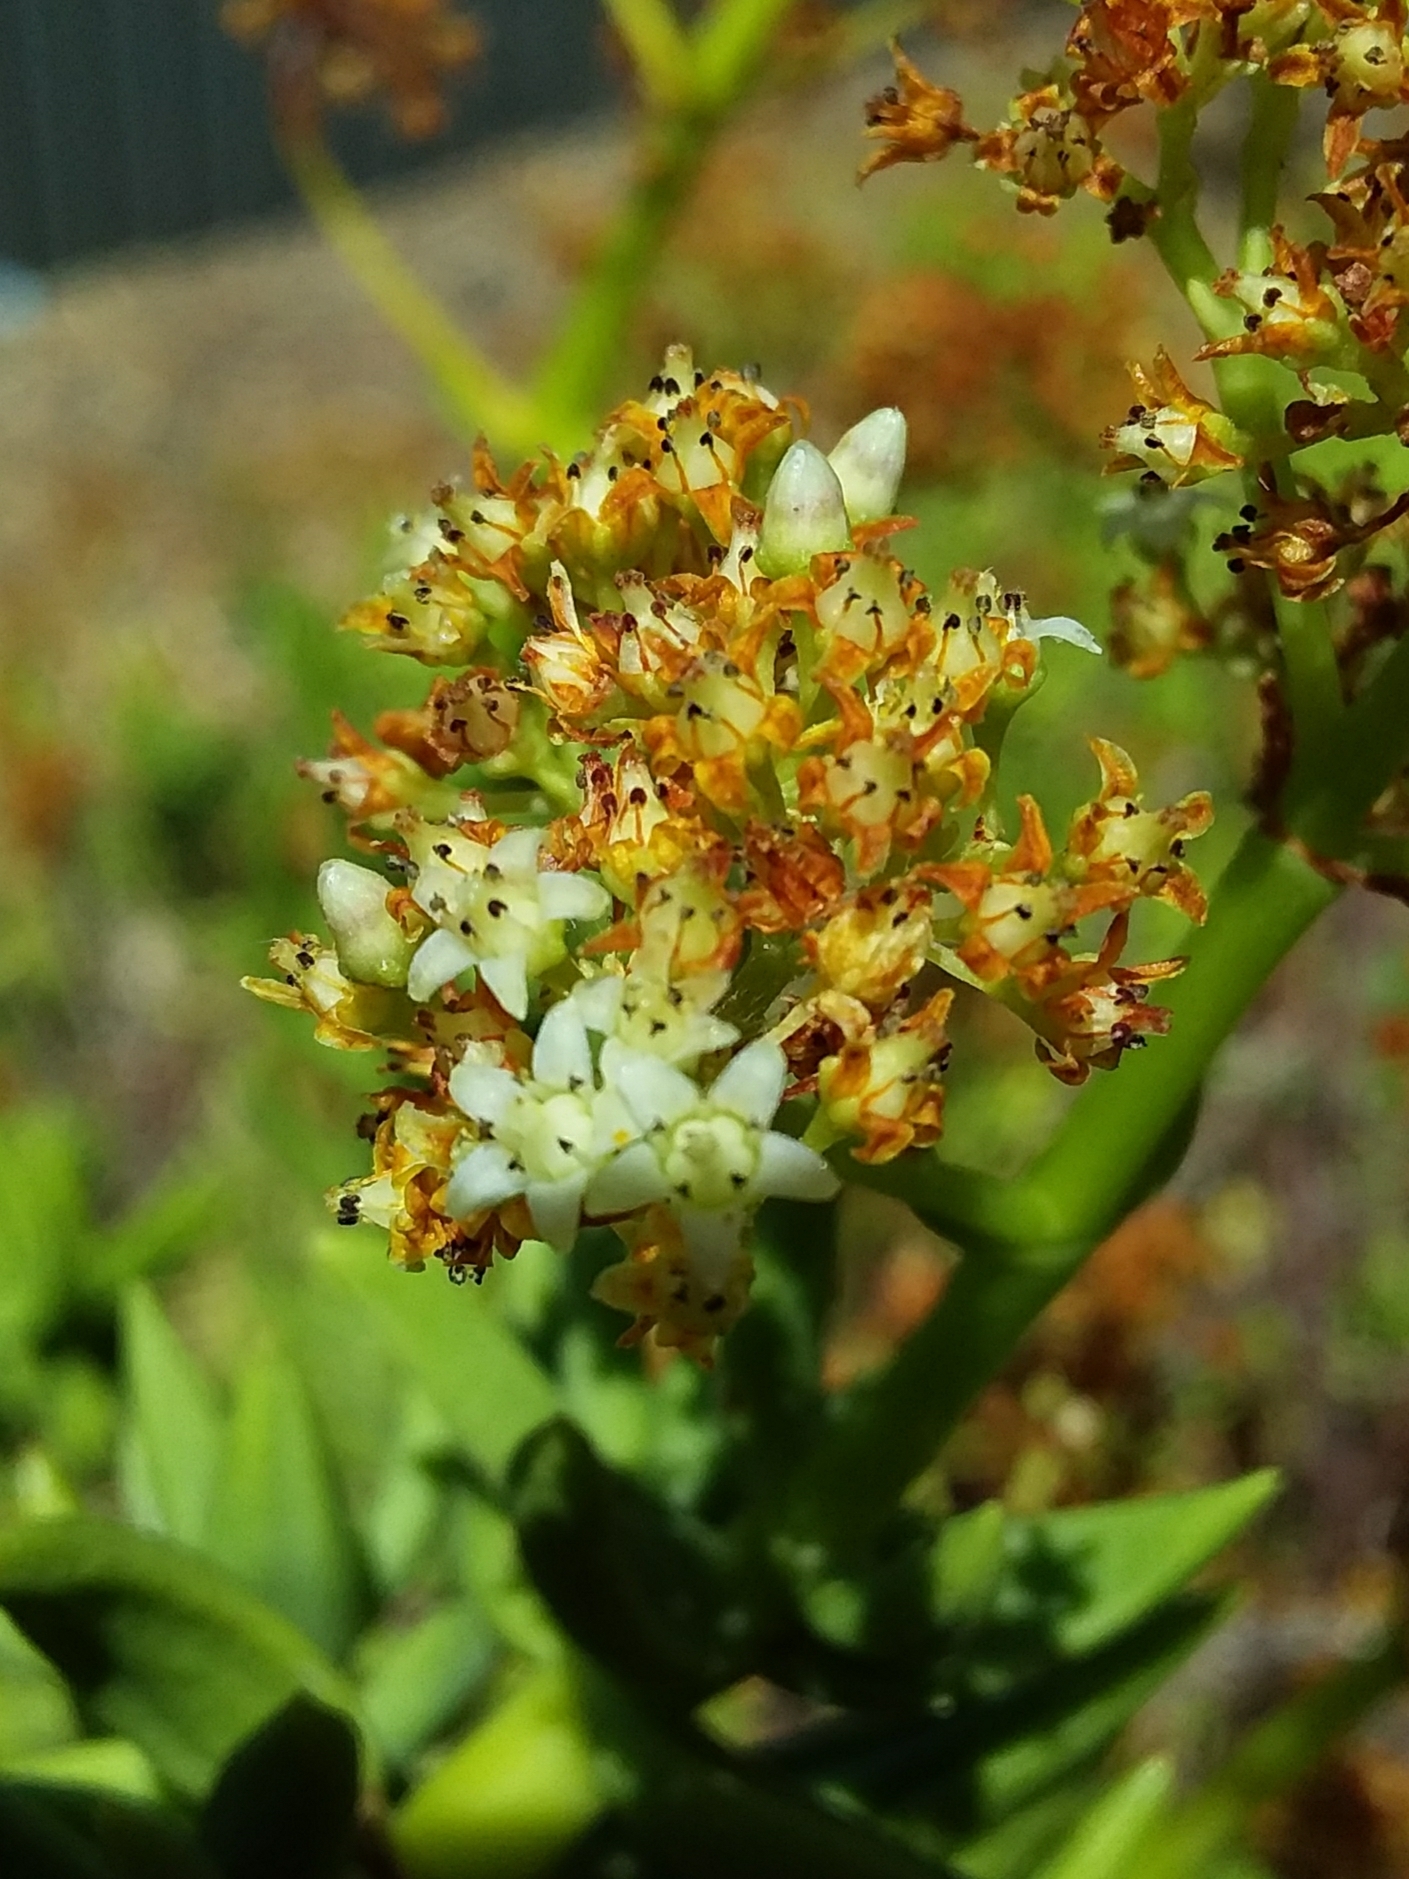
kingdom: Plantae
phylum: Tracheophyta
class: Magnoliopsida
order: Saxifragales
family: Crassulaceae
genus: Crassula
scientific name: Crassula tetragona
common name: Pygmyweed
